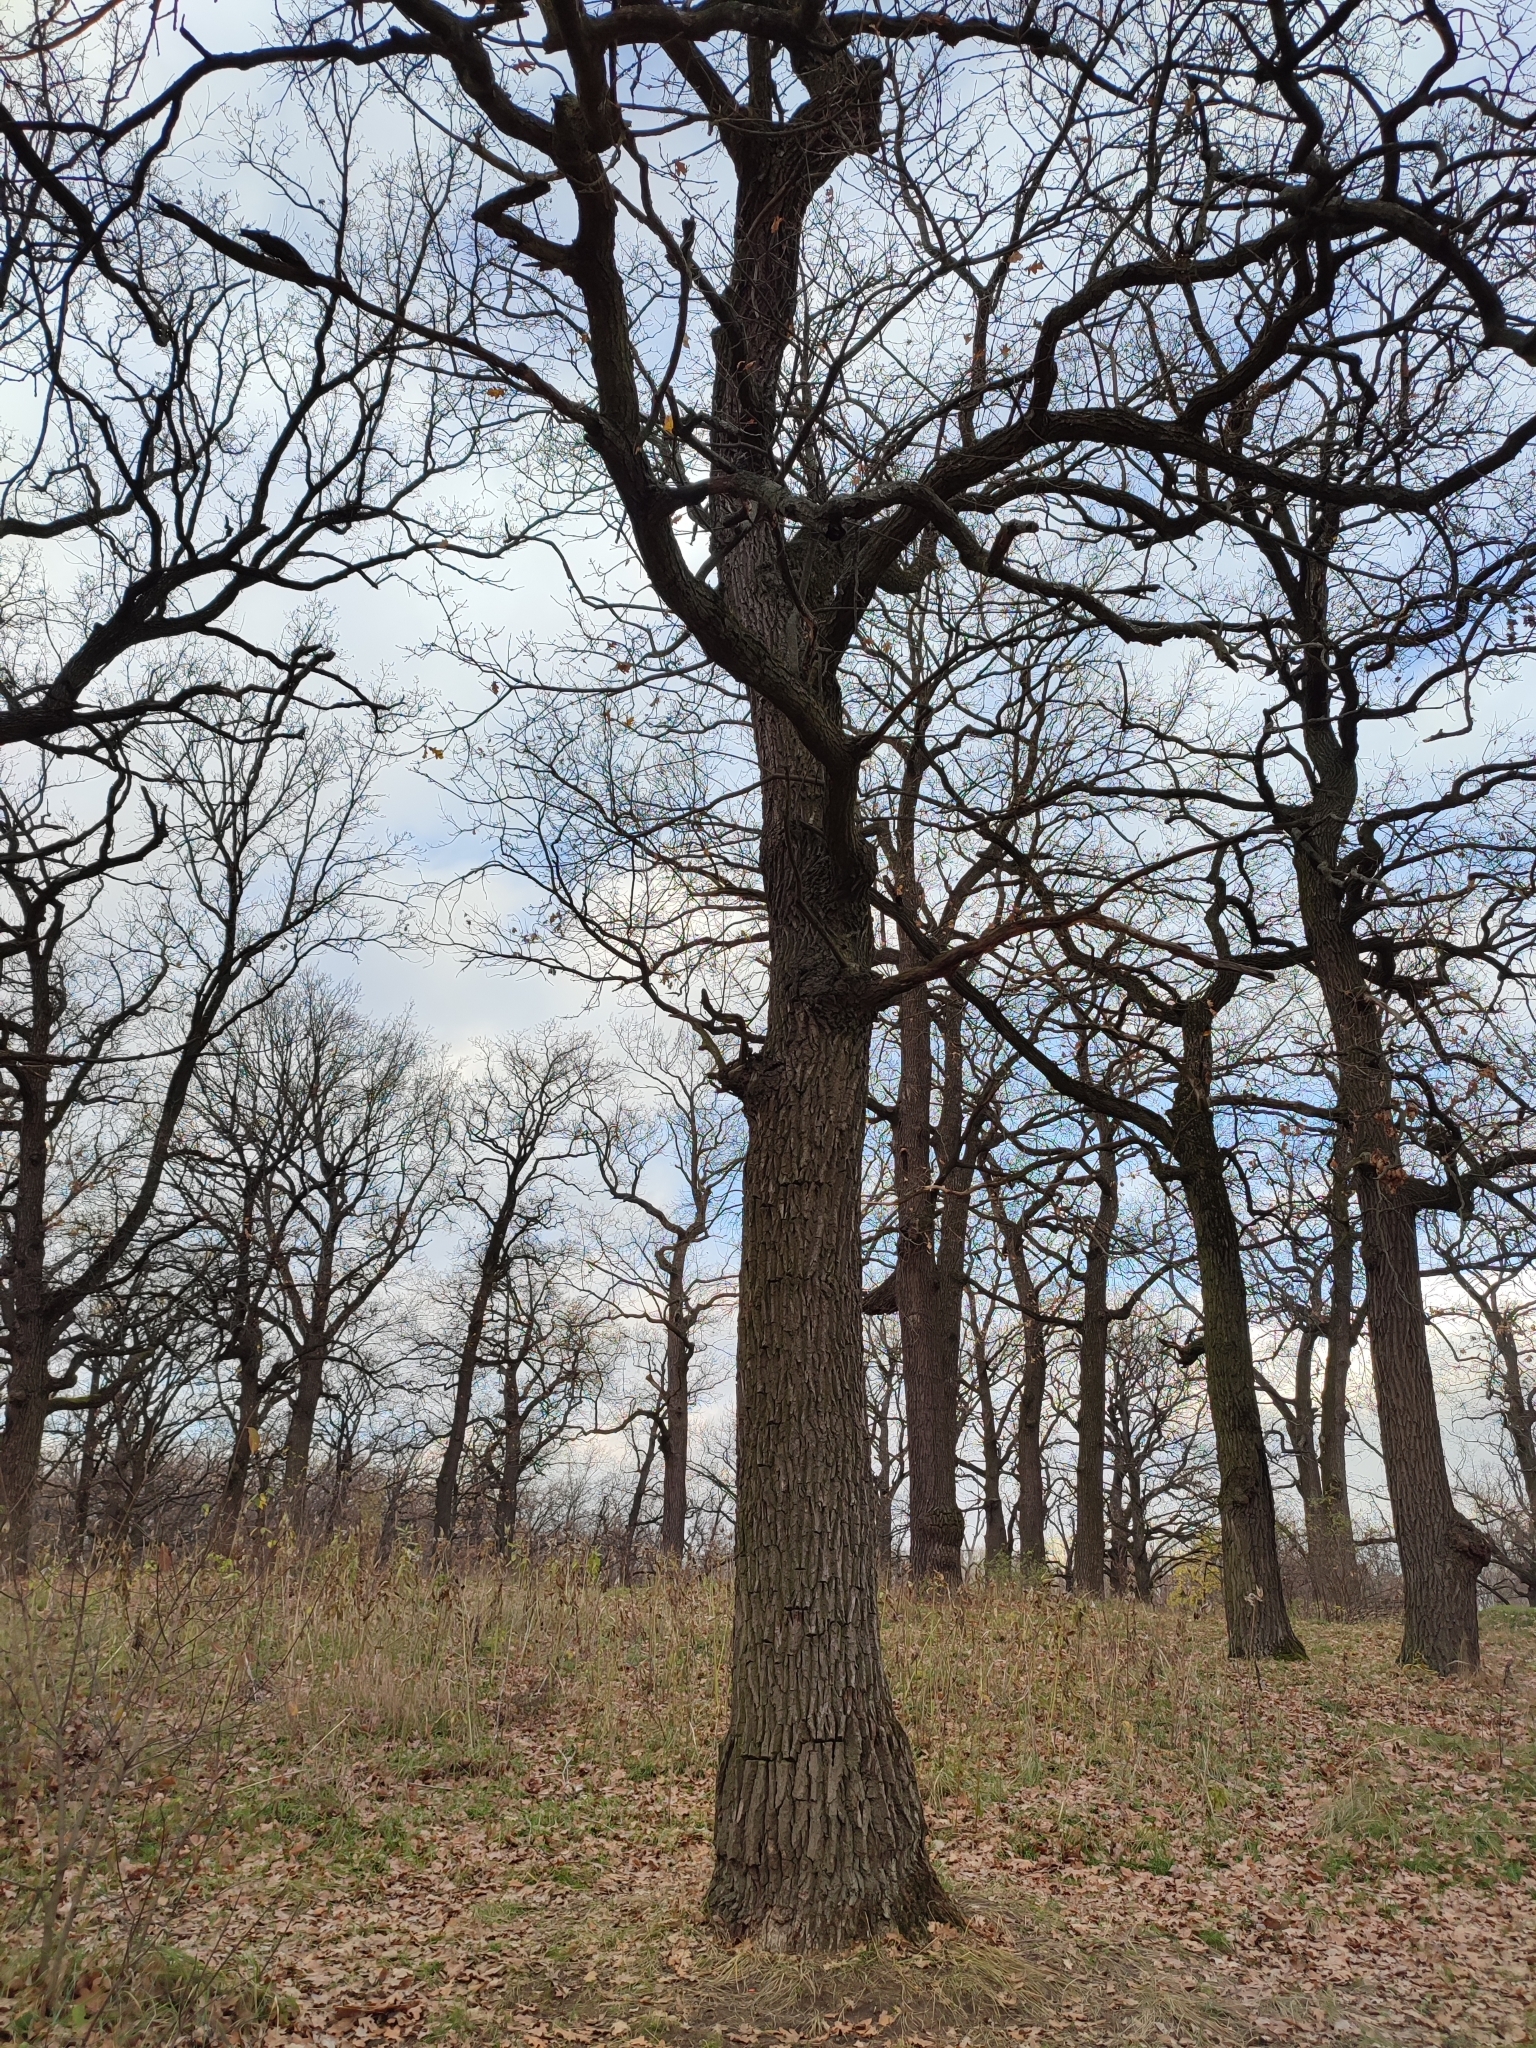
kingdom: Plantae
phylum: Tracheophyta
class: Magnoliopsida
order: Fagales
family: Fagaceae
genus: Quercus
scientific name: Quercus robur
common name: Pedunculate oak
